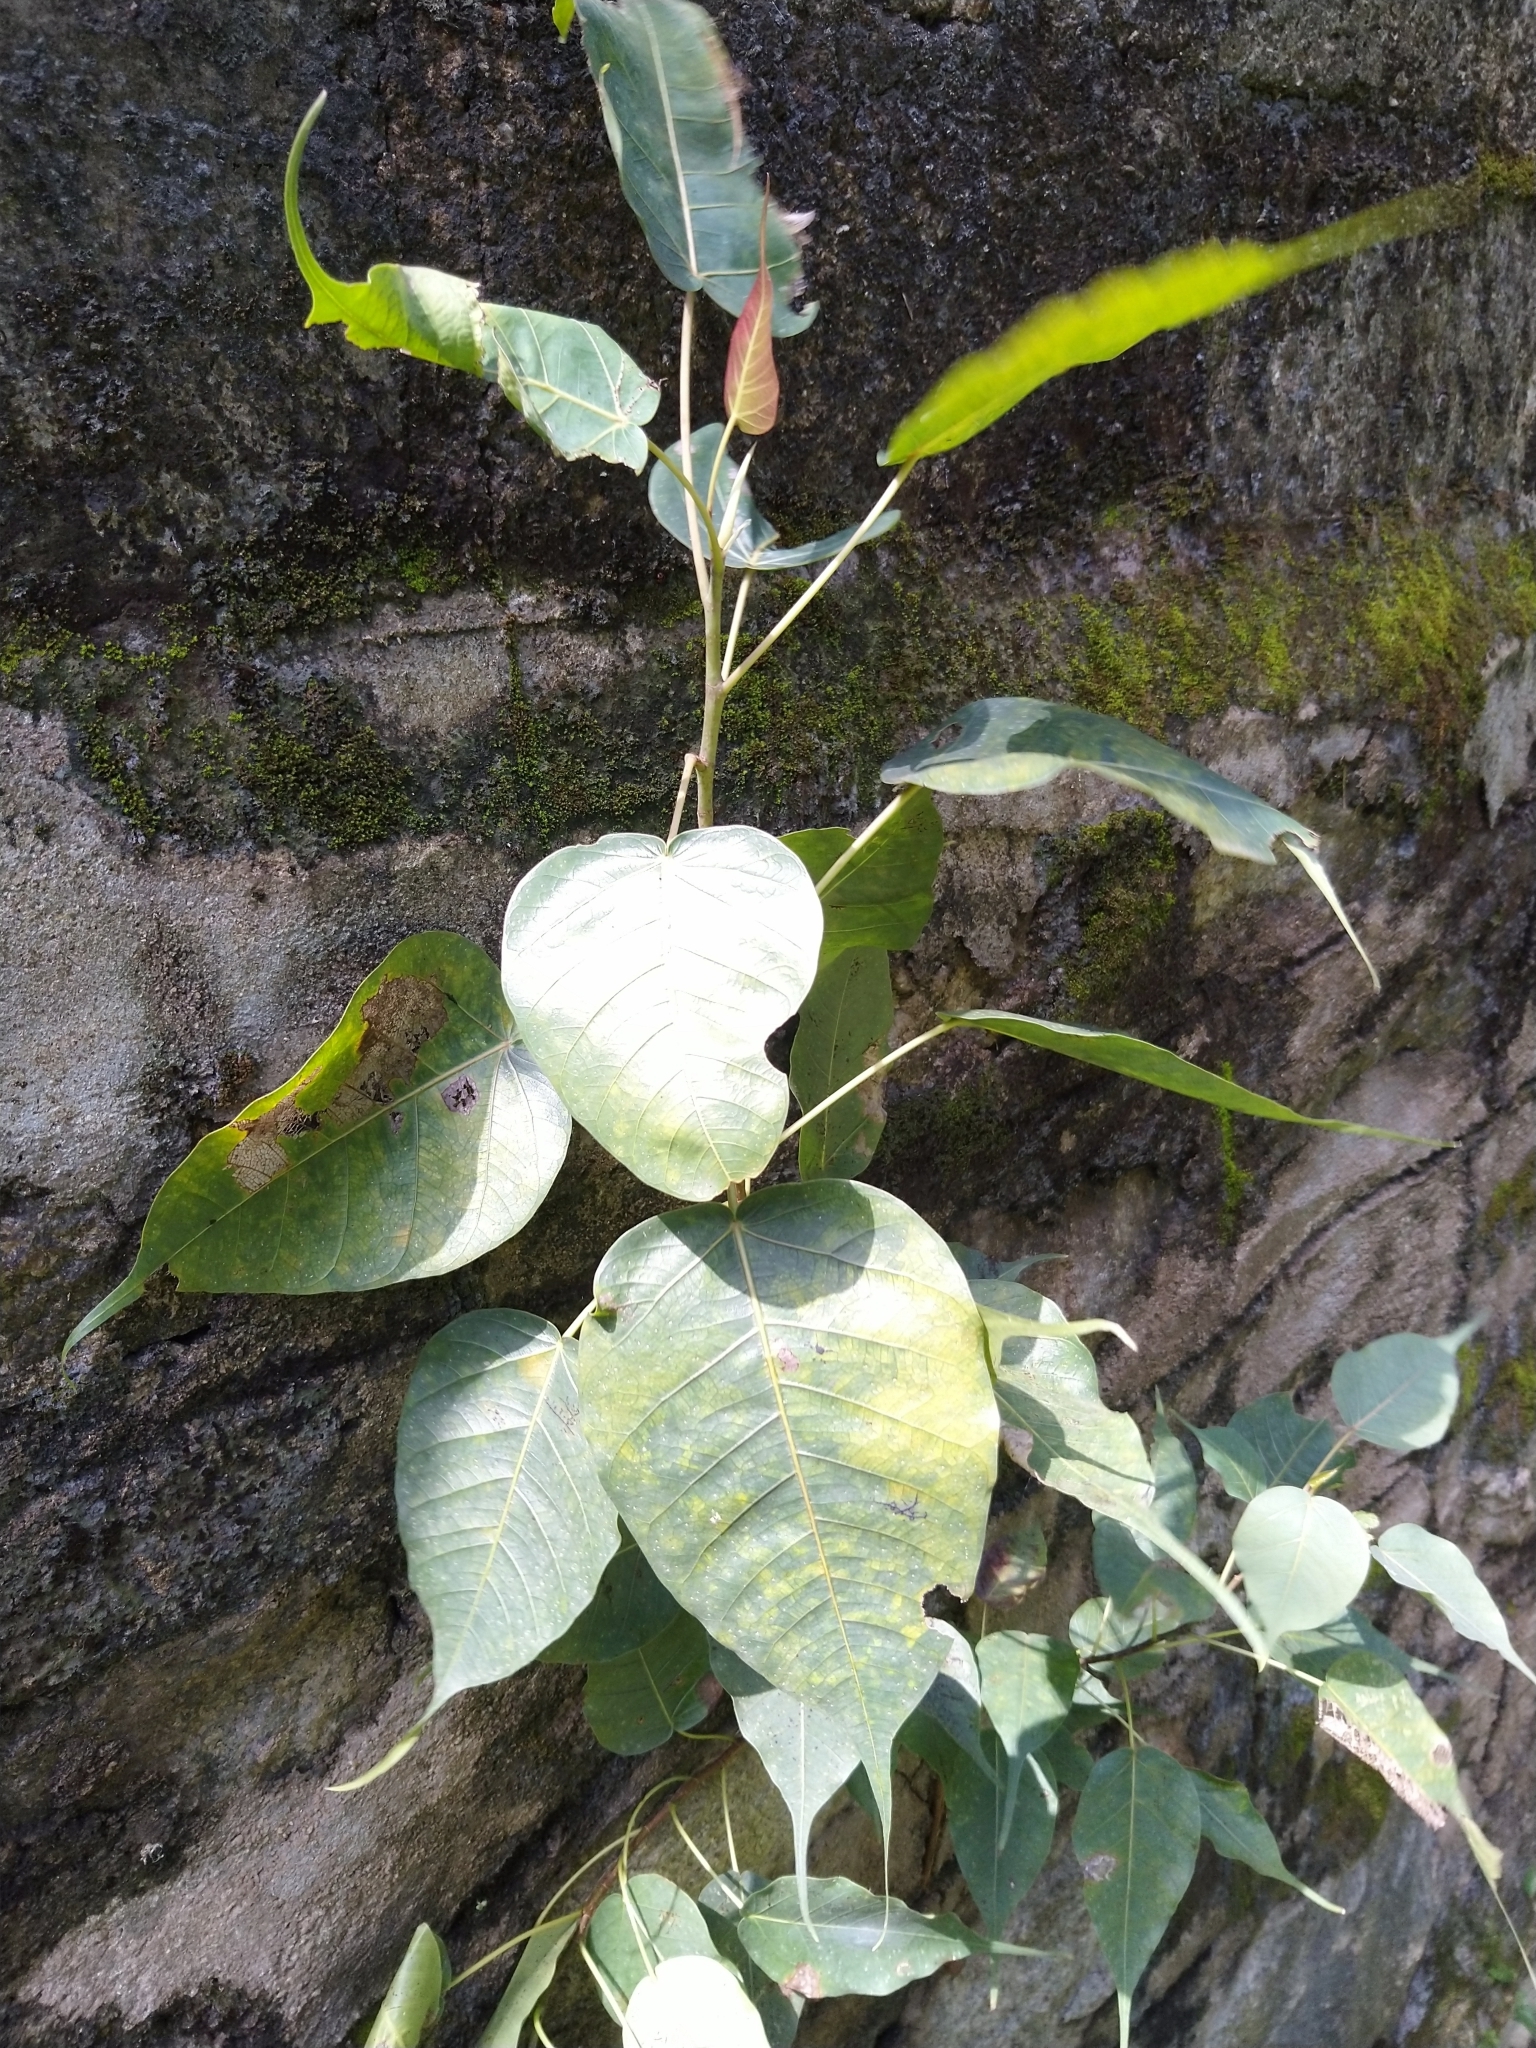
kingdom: Plantae
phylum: Tracheophyta
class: Magnoliopsida
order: Rosales
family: Moraceae
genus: Ficus
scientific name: Ficus religiosa
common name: Bodhi tree
